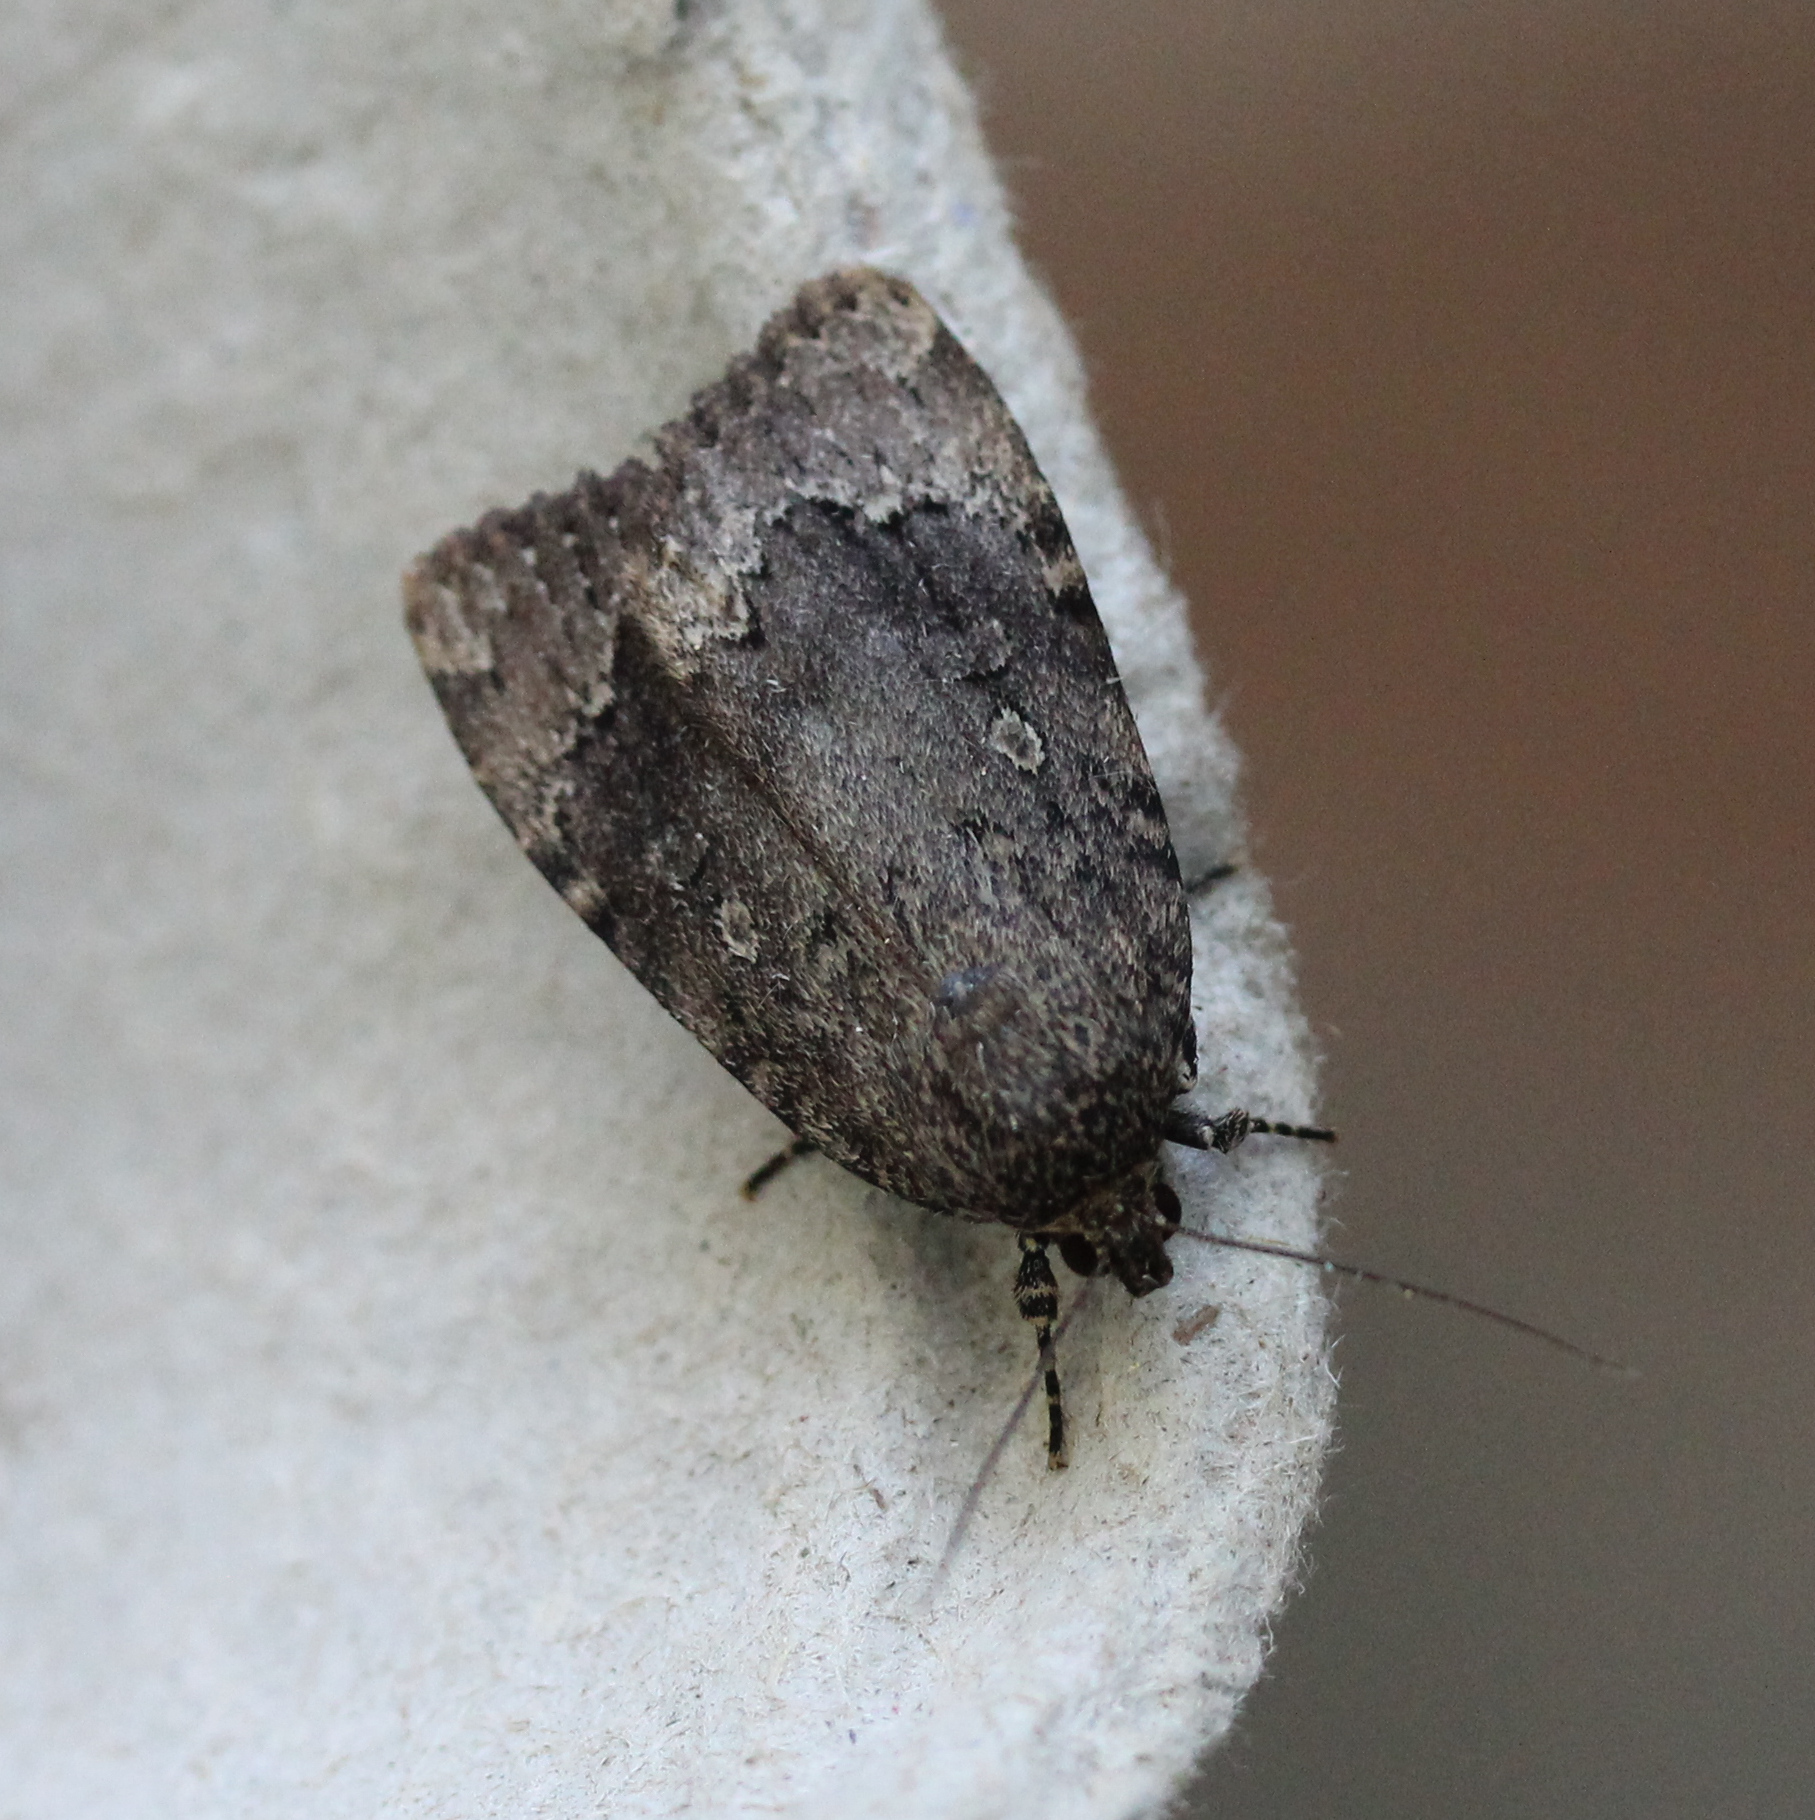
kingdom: Animalia
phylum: Arthropoda
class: Insecta
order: Lepidoptera
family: Noctuidae
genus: Amphipyra
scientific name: Amphipyra pyramidoides
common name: American copper underwing
